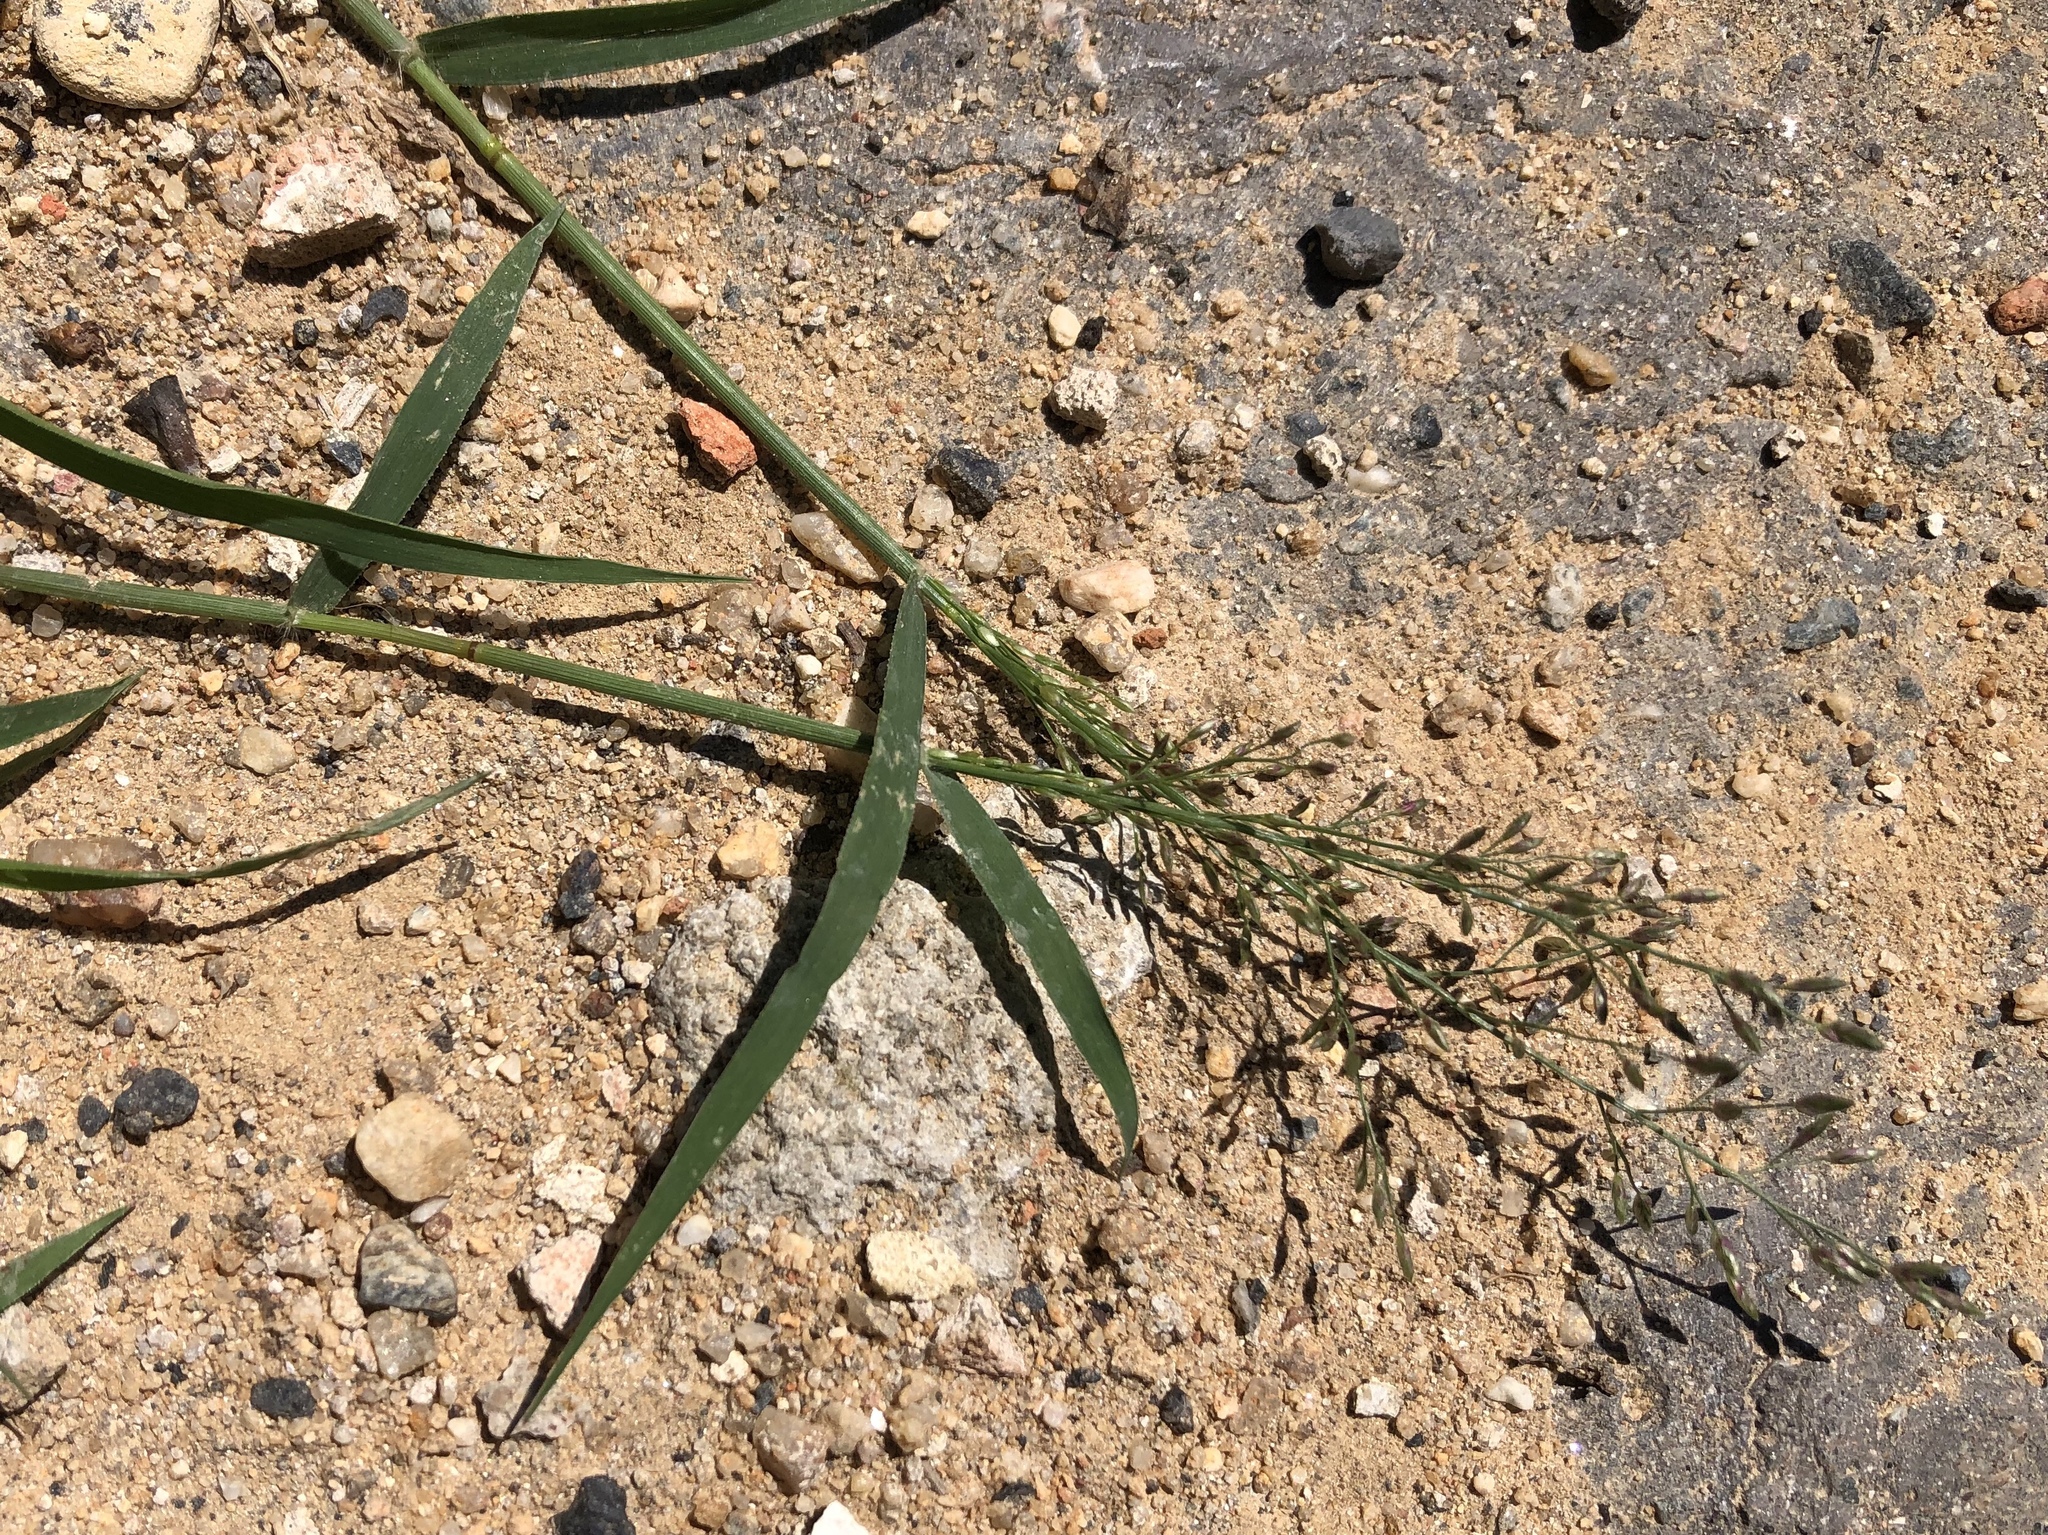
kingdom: Plantae
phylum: Tracheophyta
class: Liliopsida
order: Poales
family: Poaceae
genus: Eragrostis
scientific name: Eragrostis minor
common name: Small love-grass
